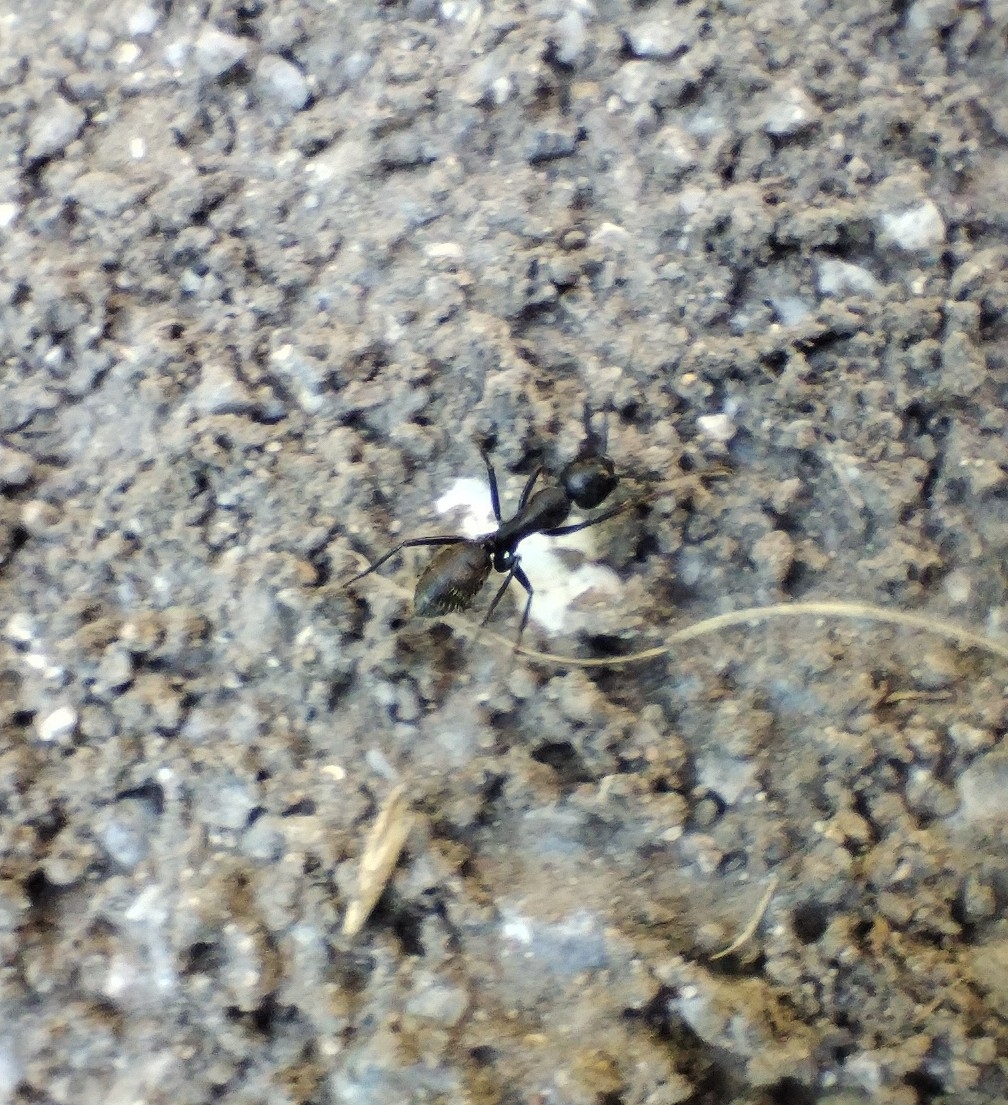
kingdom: Animalia
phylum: Arthropoda
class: Insecta
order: Hymenoptera
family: Formicidae
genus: Camponotus
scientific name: Camponotus vagus
